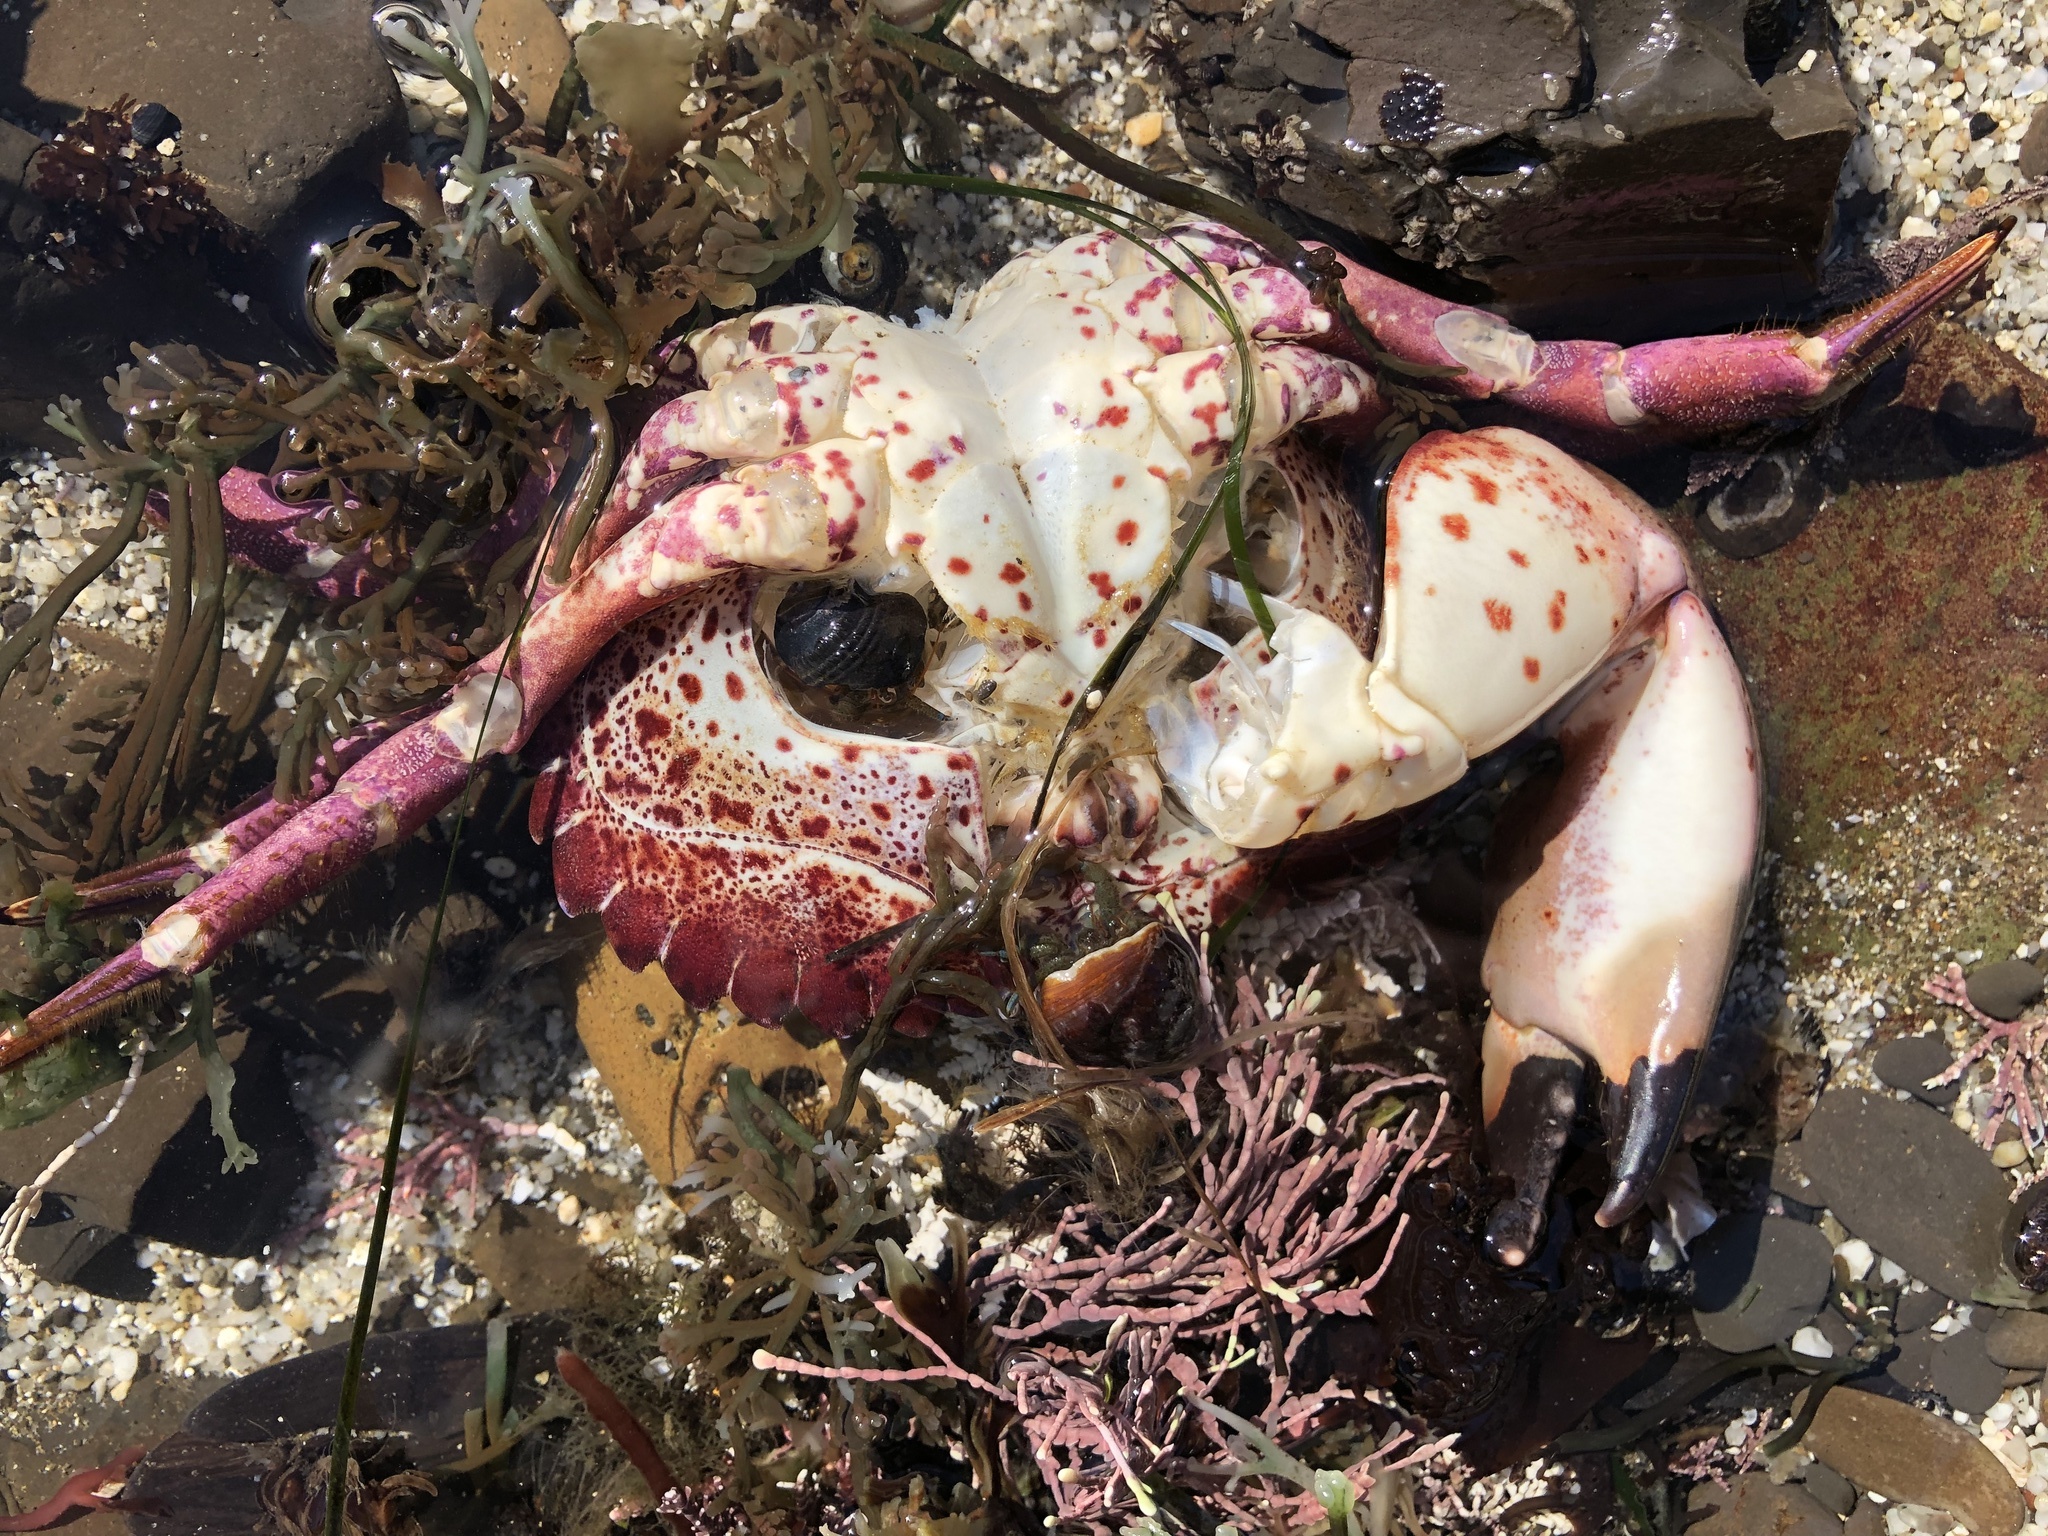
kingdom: Animalia
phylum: Arthropoda
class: Malacostraca
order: Decapoda
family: Cancridae
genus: Romaleon
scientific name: Romaleon antennarium
